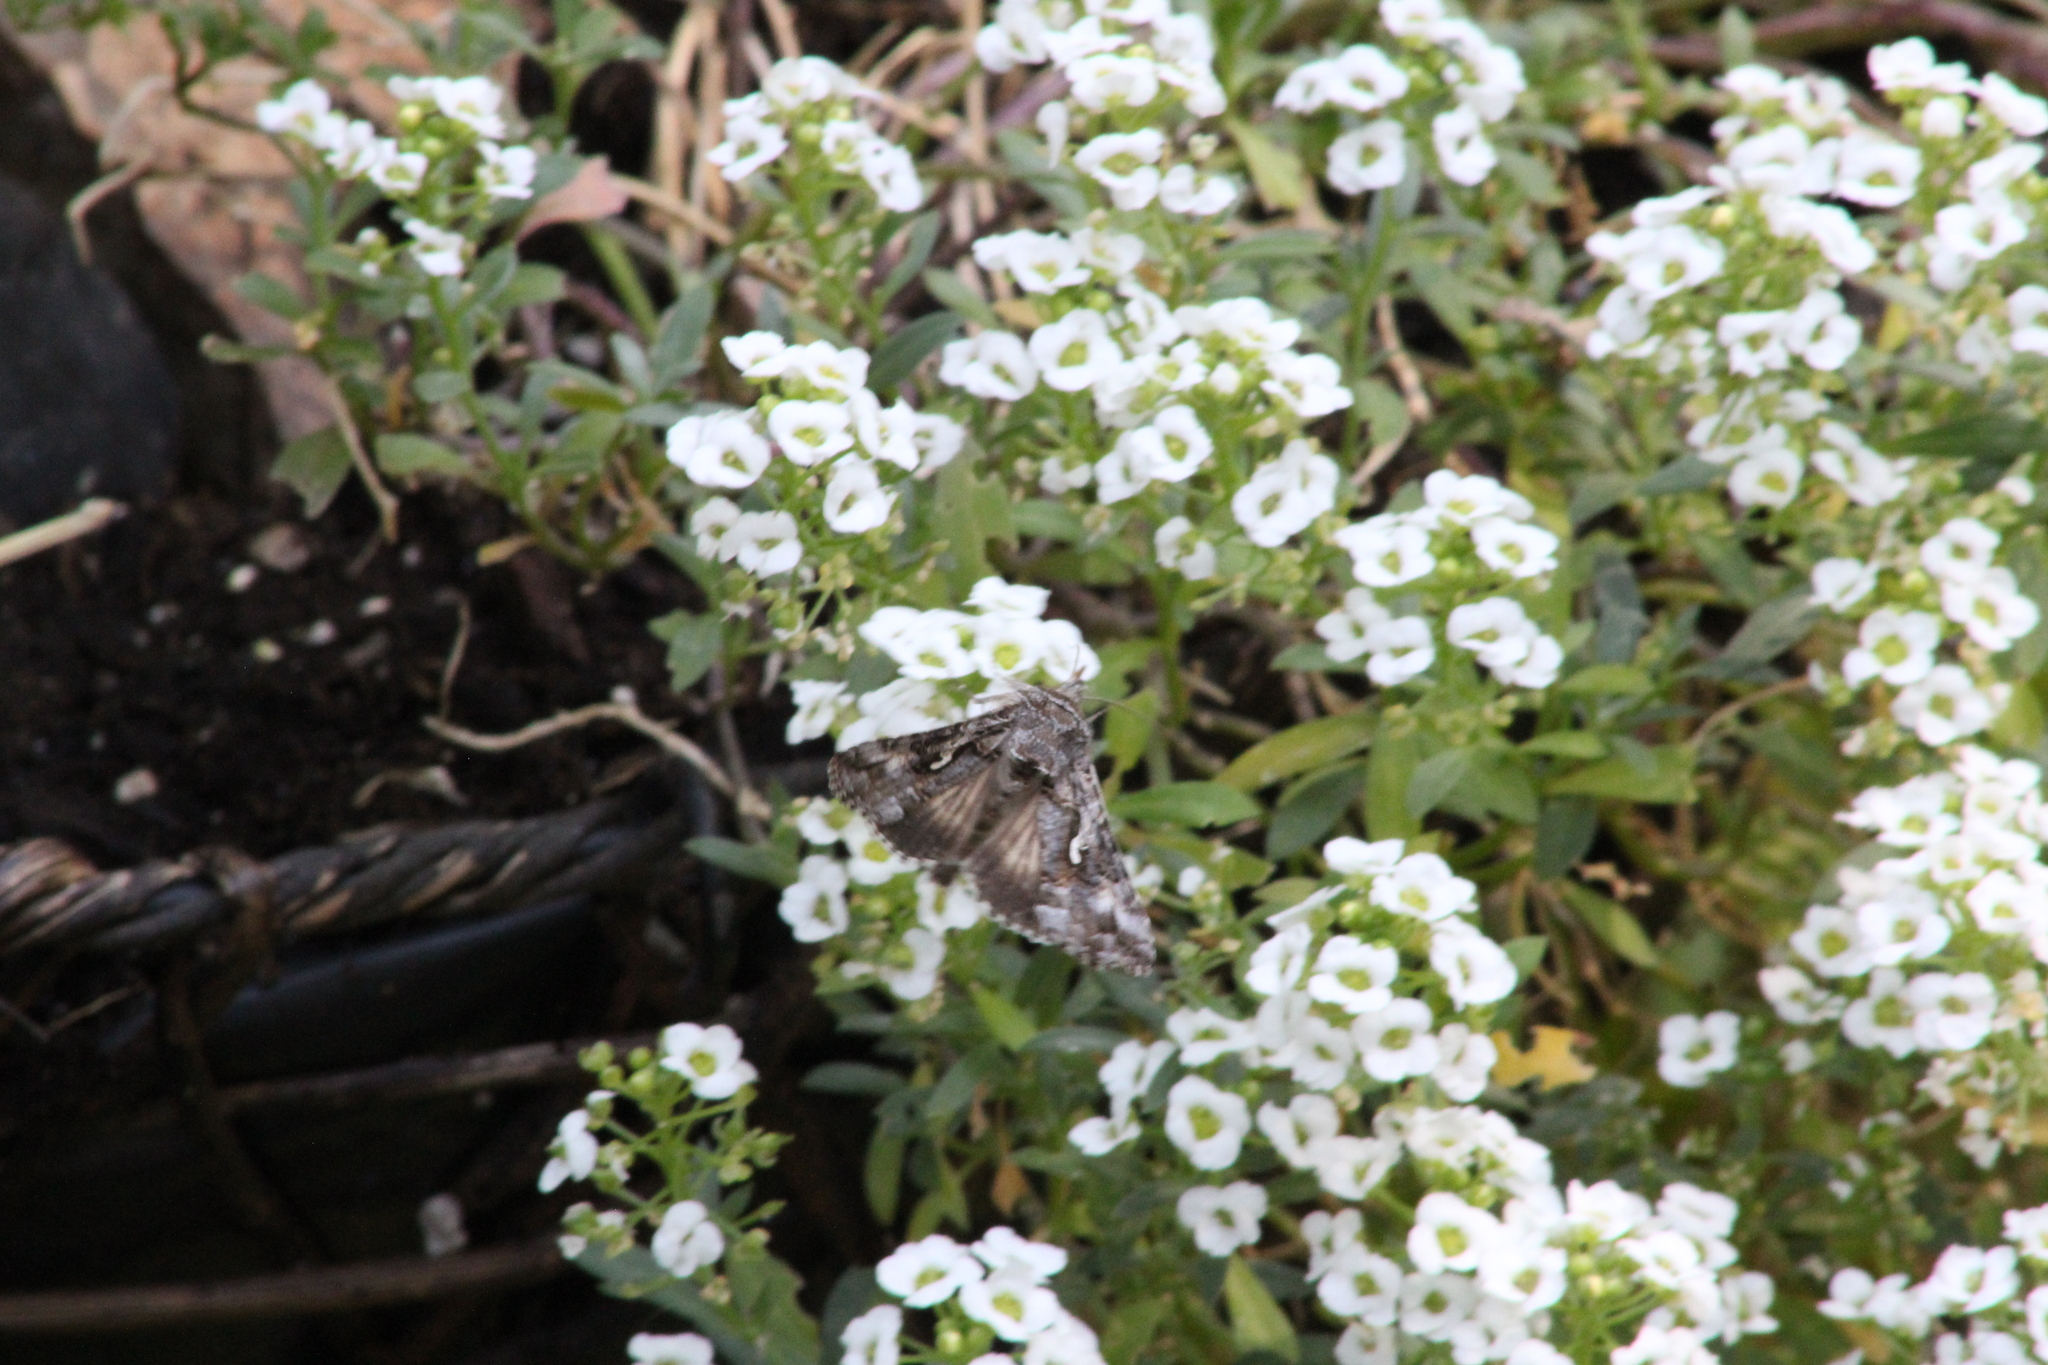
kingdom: Animalia
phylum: Arthropoda
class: Insecta
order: Lepidoptera
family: Noctuidae
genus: Autographa
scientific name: Autographa californica
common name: Alfalfa looper
